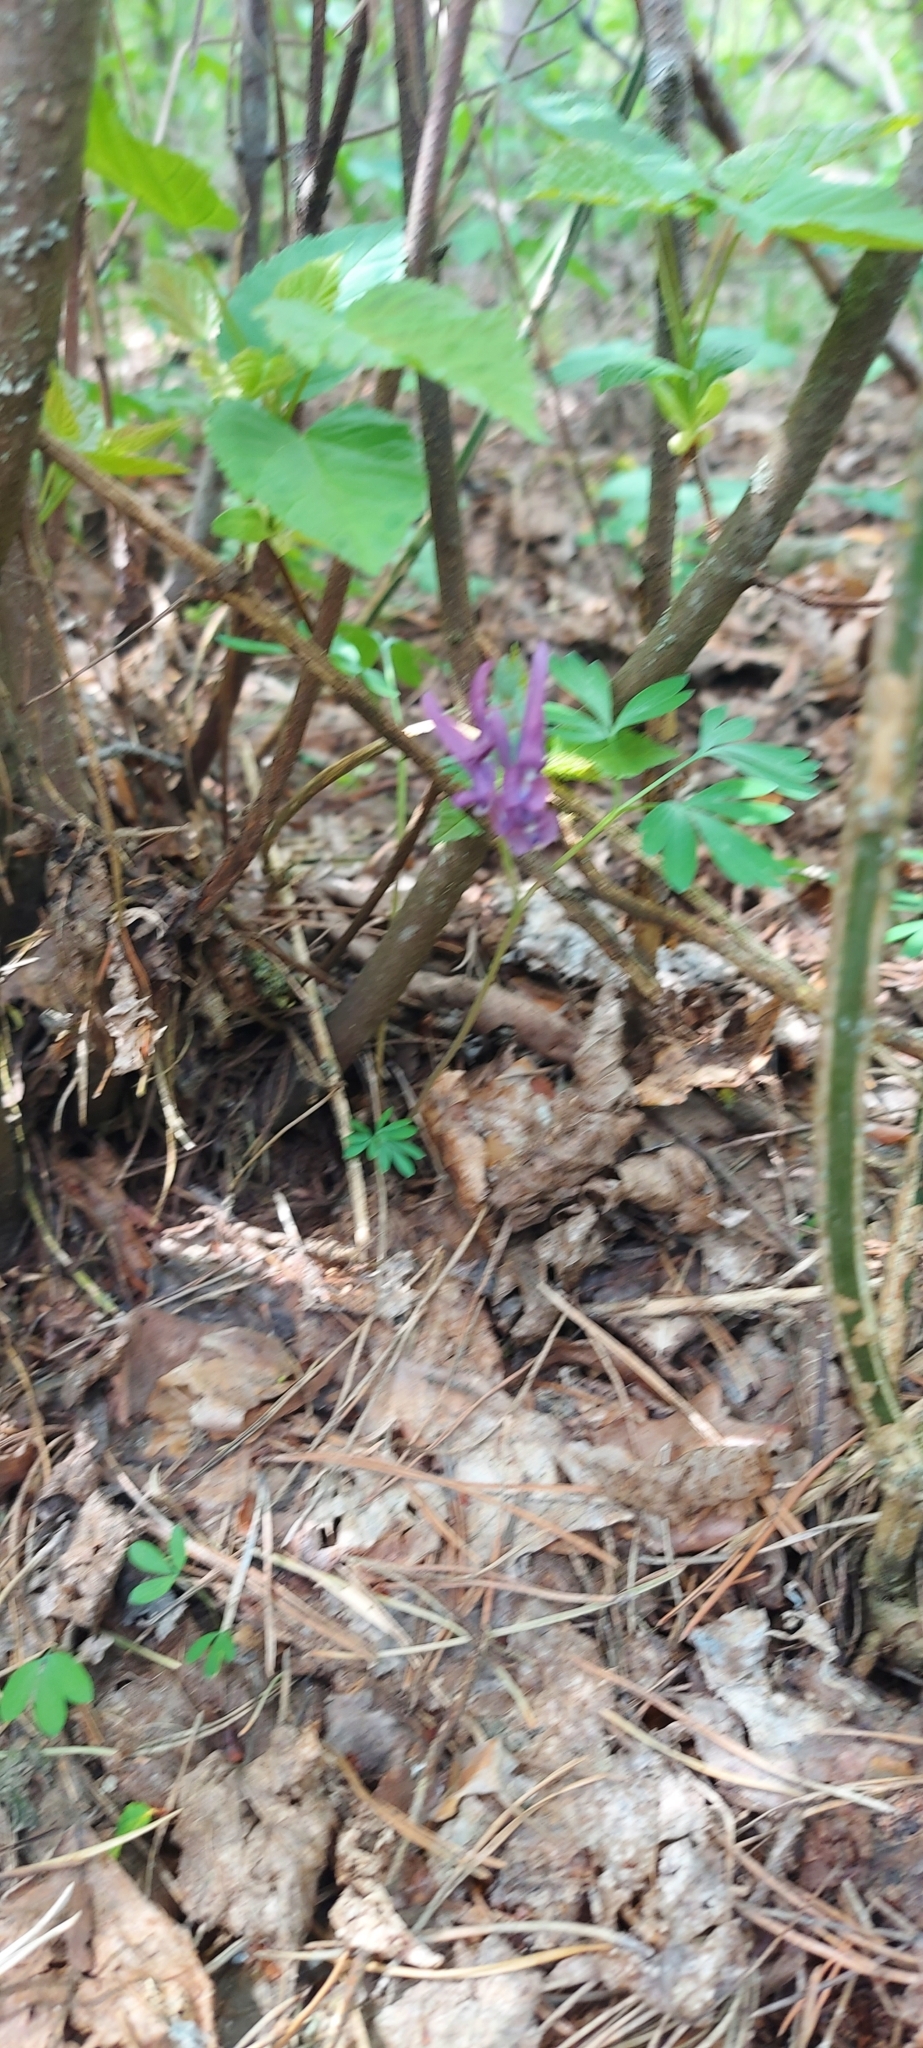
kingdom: Plantae
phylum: Tracheophyta
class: Magnoliopsida
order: Ranunculales
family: Papaveraceae
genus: Corydalis
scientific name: Corydalis solida
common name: Bird-in-a-bush
